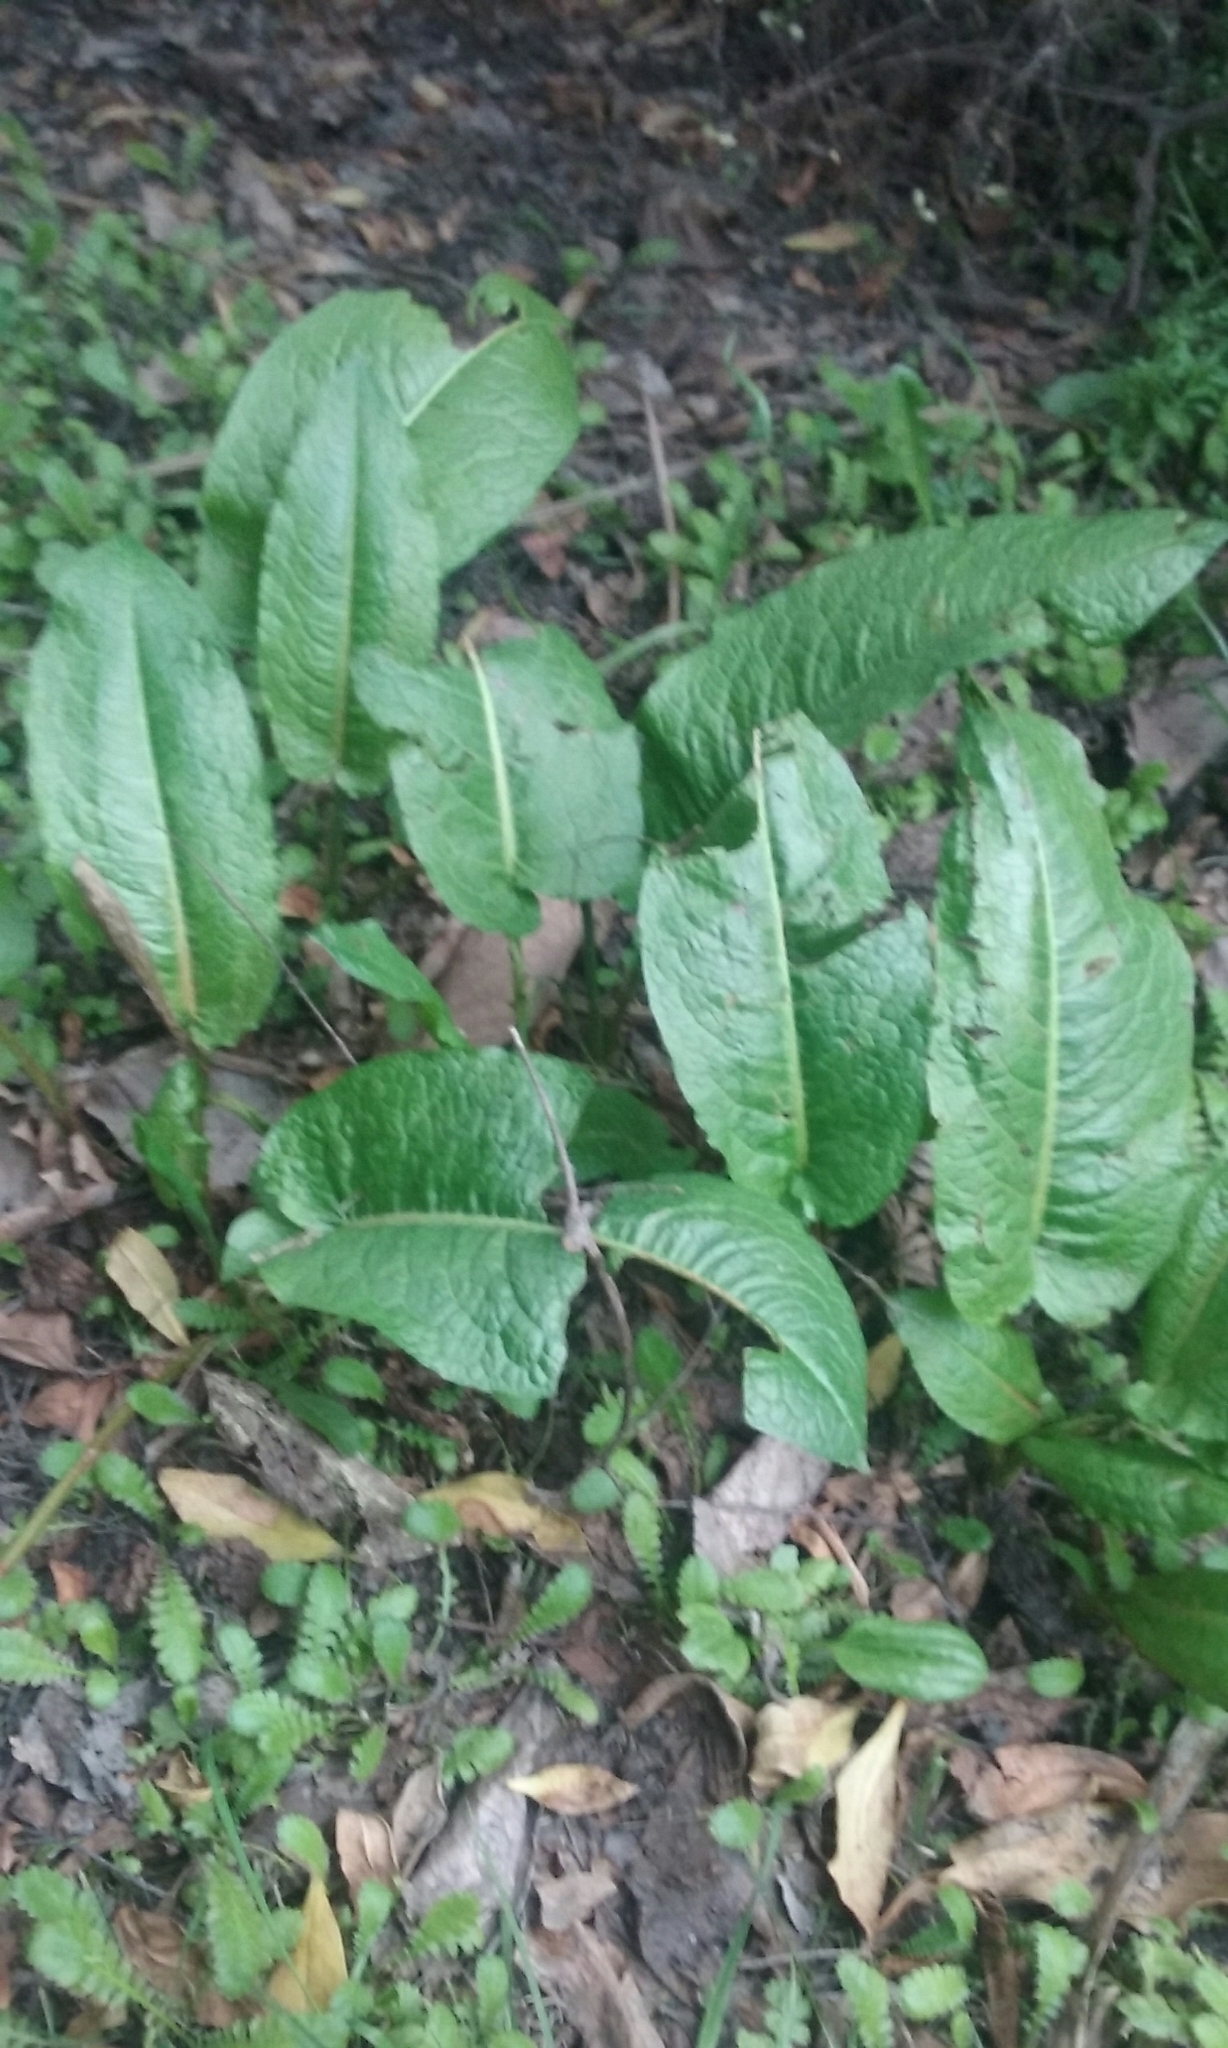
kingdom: Plantae
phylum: Tracheophyta
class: Magnoliopsida
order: Caryophyllales
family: Polygonaceae
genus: Rumex
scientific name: Rumex obtusifolius
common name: Bitter dock
